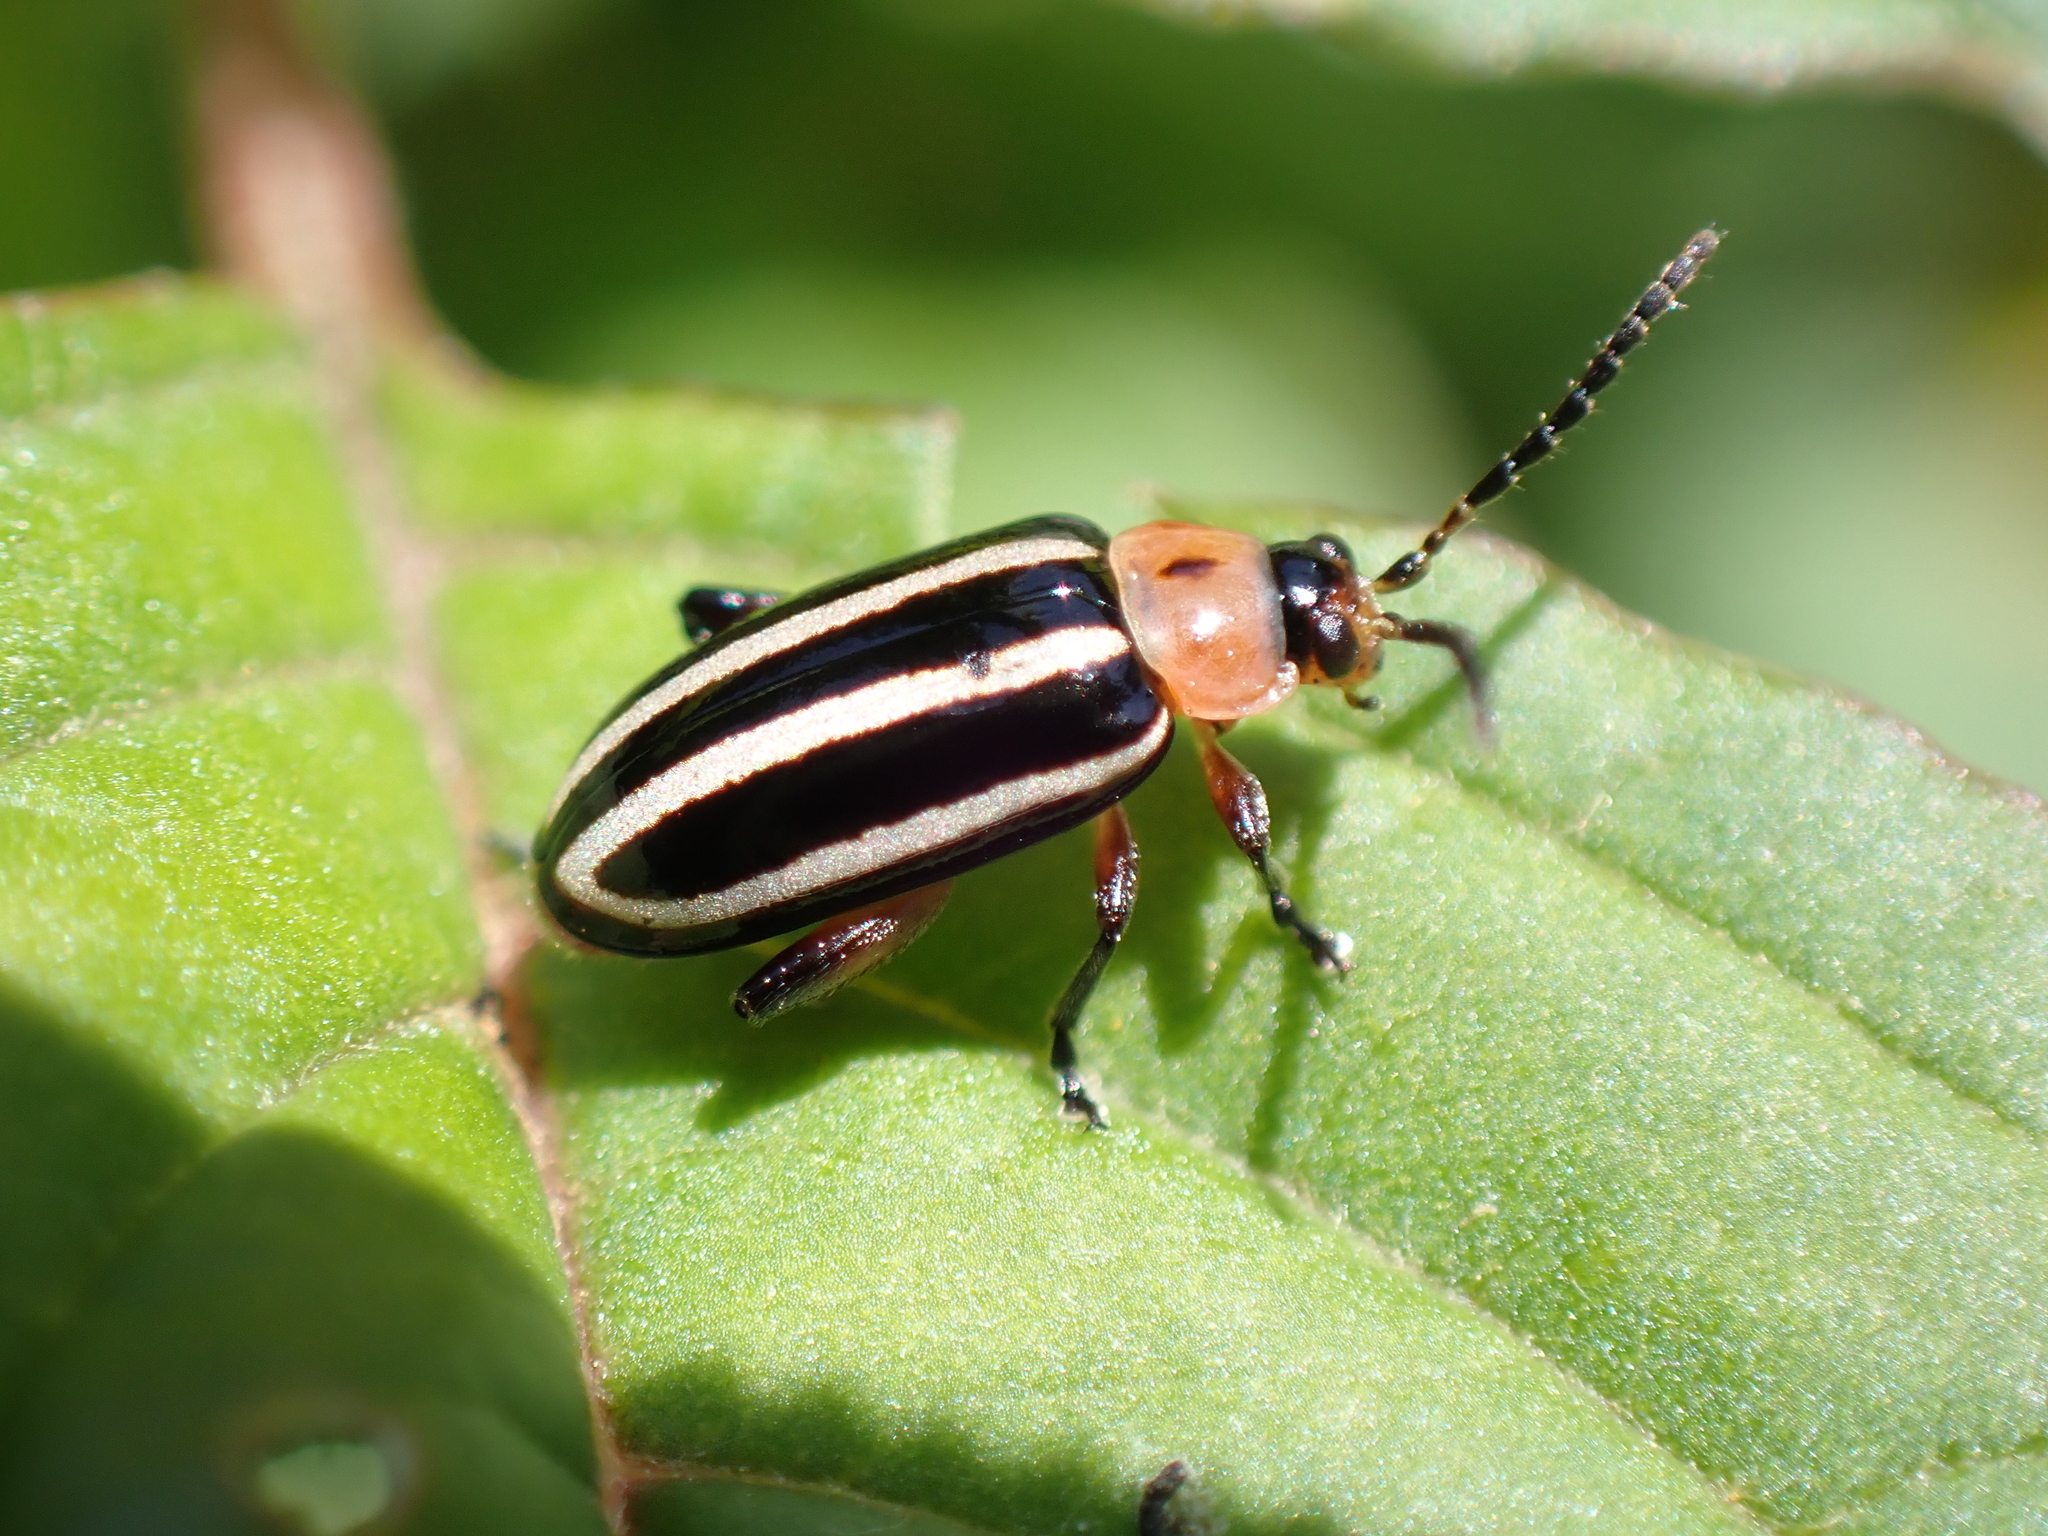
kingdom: Animalia
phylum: Arthropoda
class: Insecta
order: Coleoptera
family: Chrysomelidae
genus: Disonycha
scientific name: Disonycha glabrata
